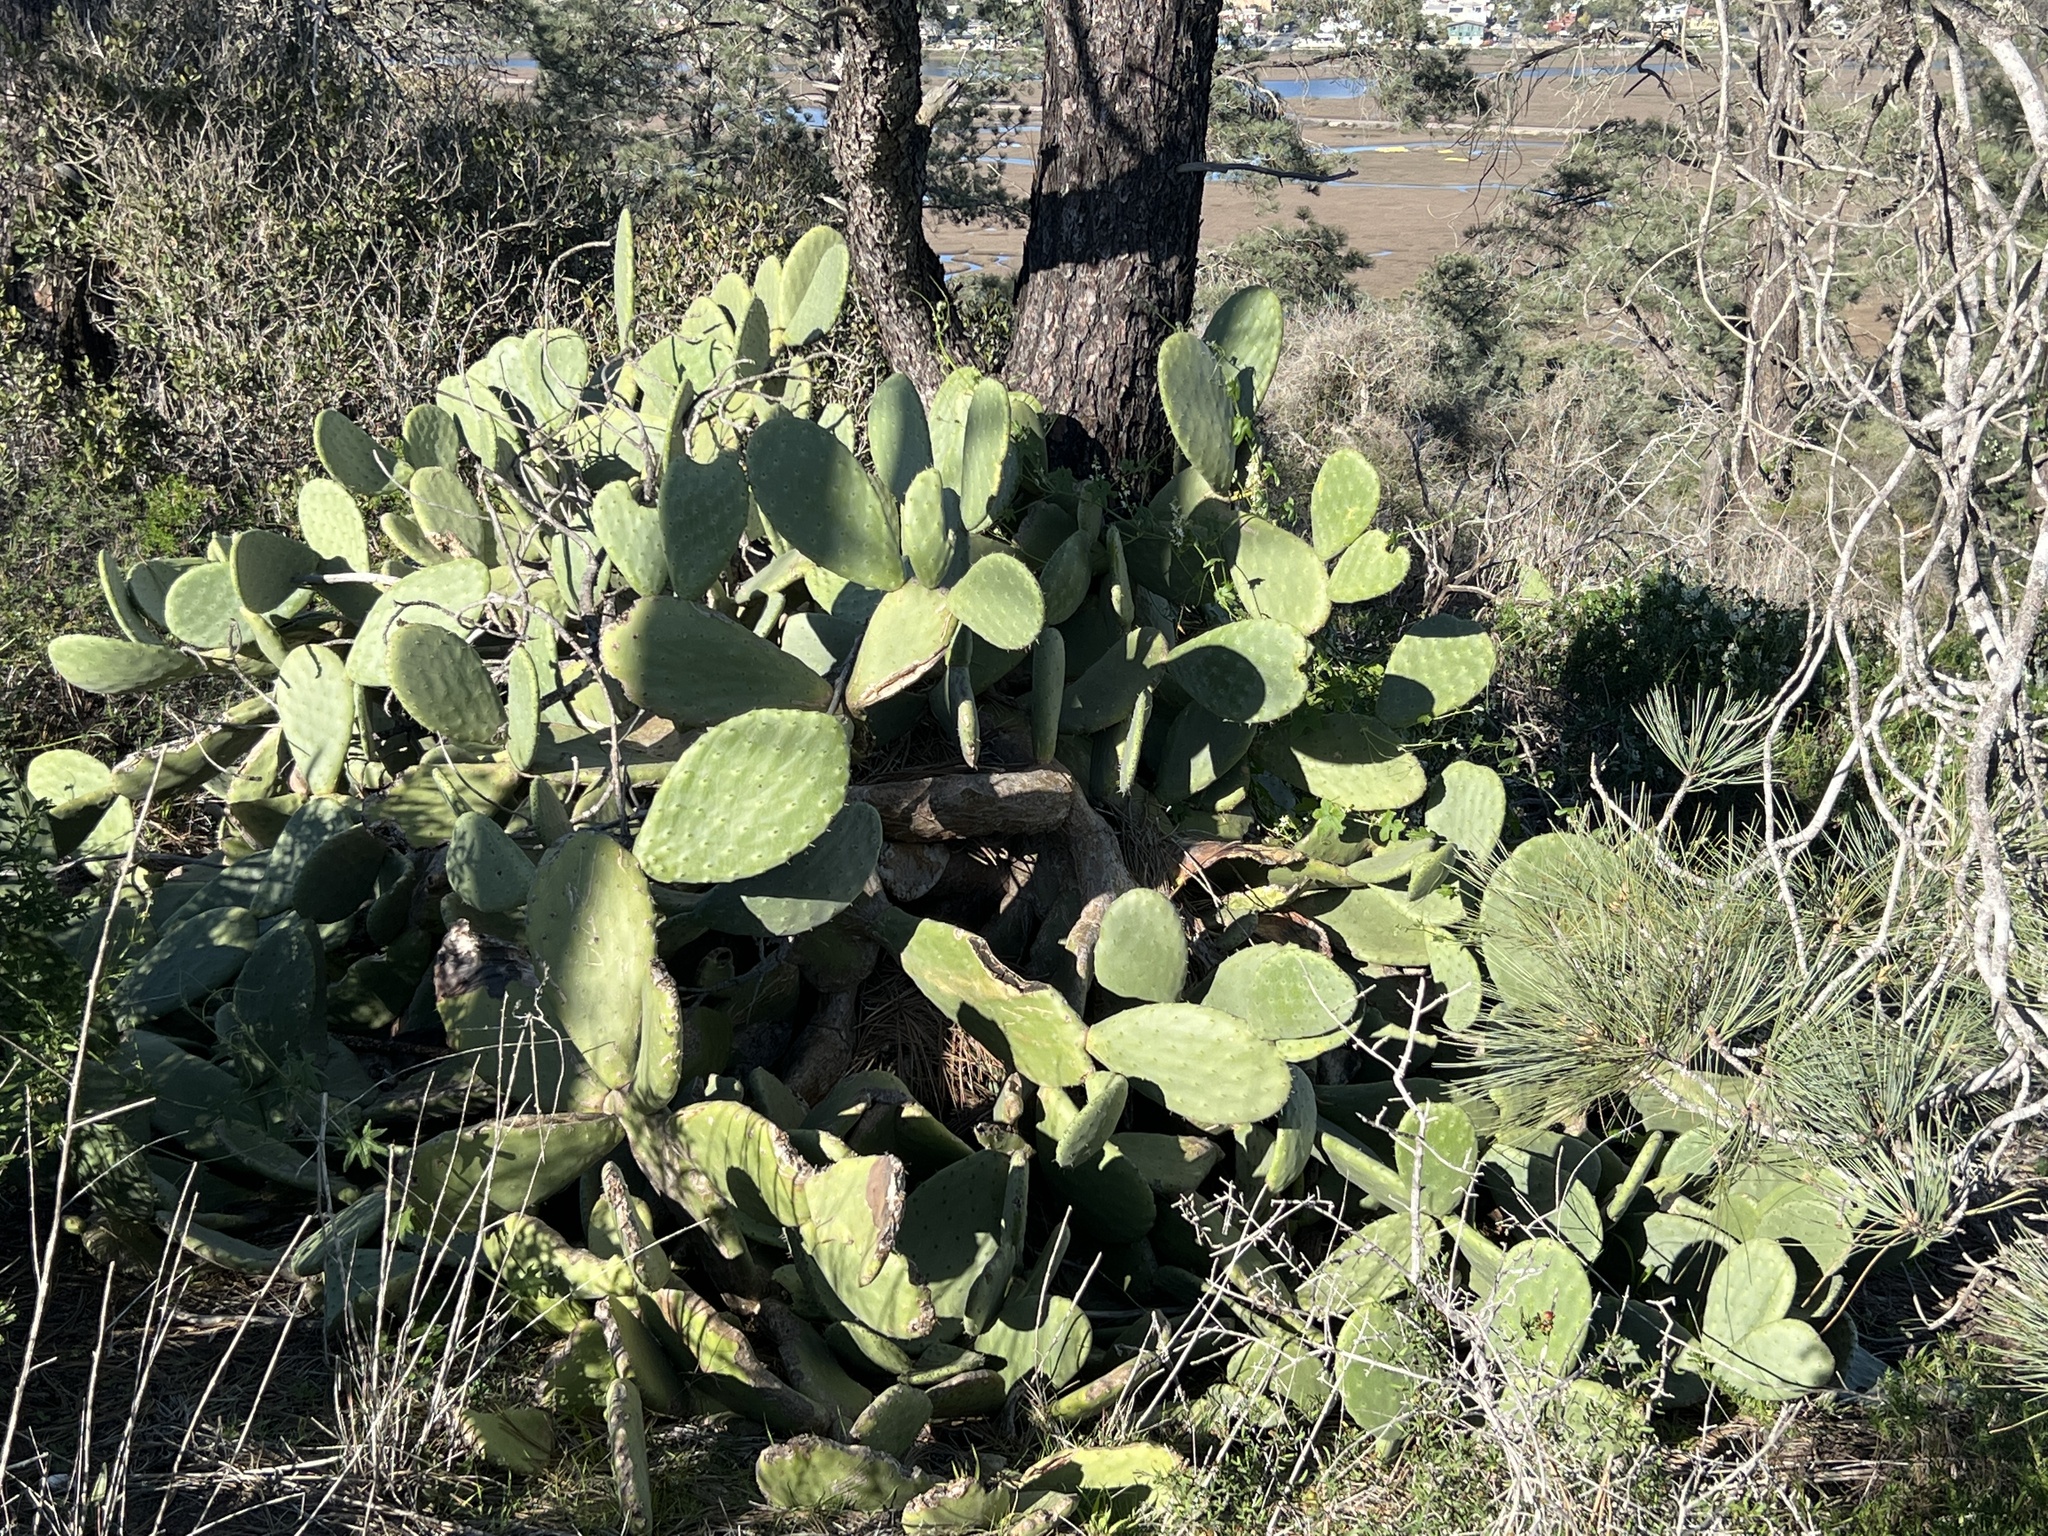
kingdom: Plantae
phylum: Tracheophyta
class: Magnoliopsida
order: Caryophyllales
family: Cactaceae
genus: Opuntia
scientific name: Opuntia ficus-indica
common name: Barbary fig
